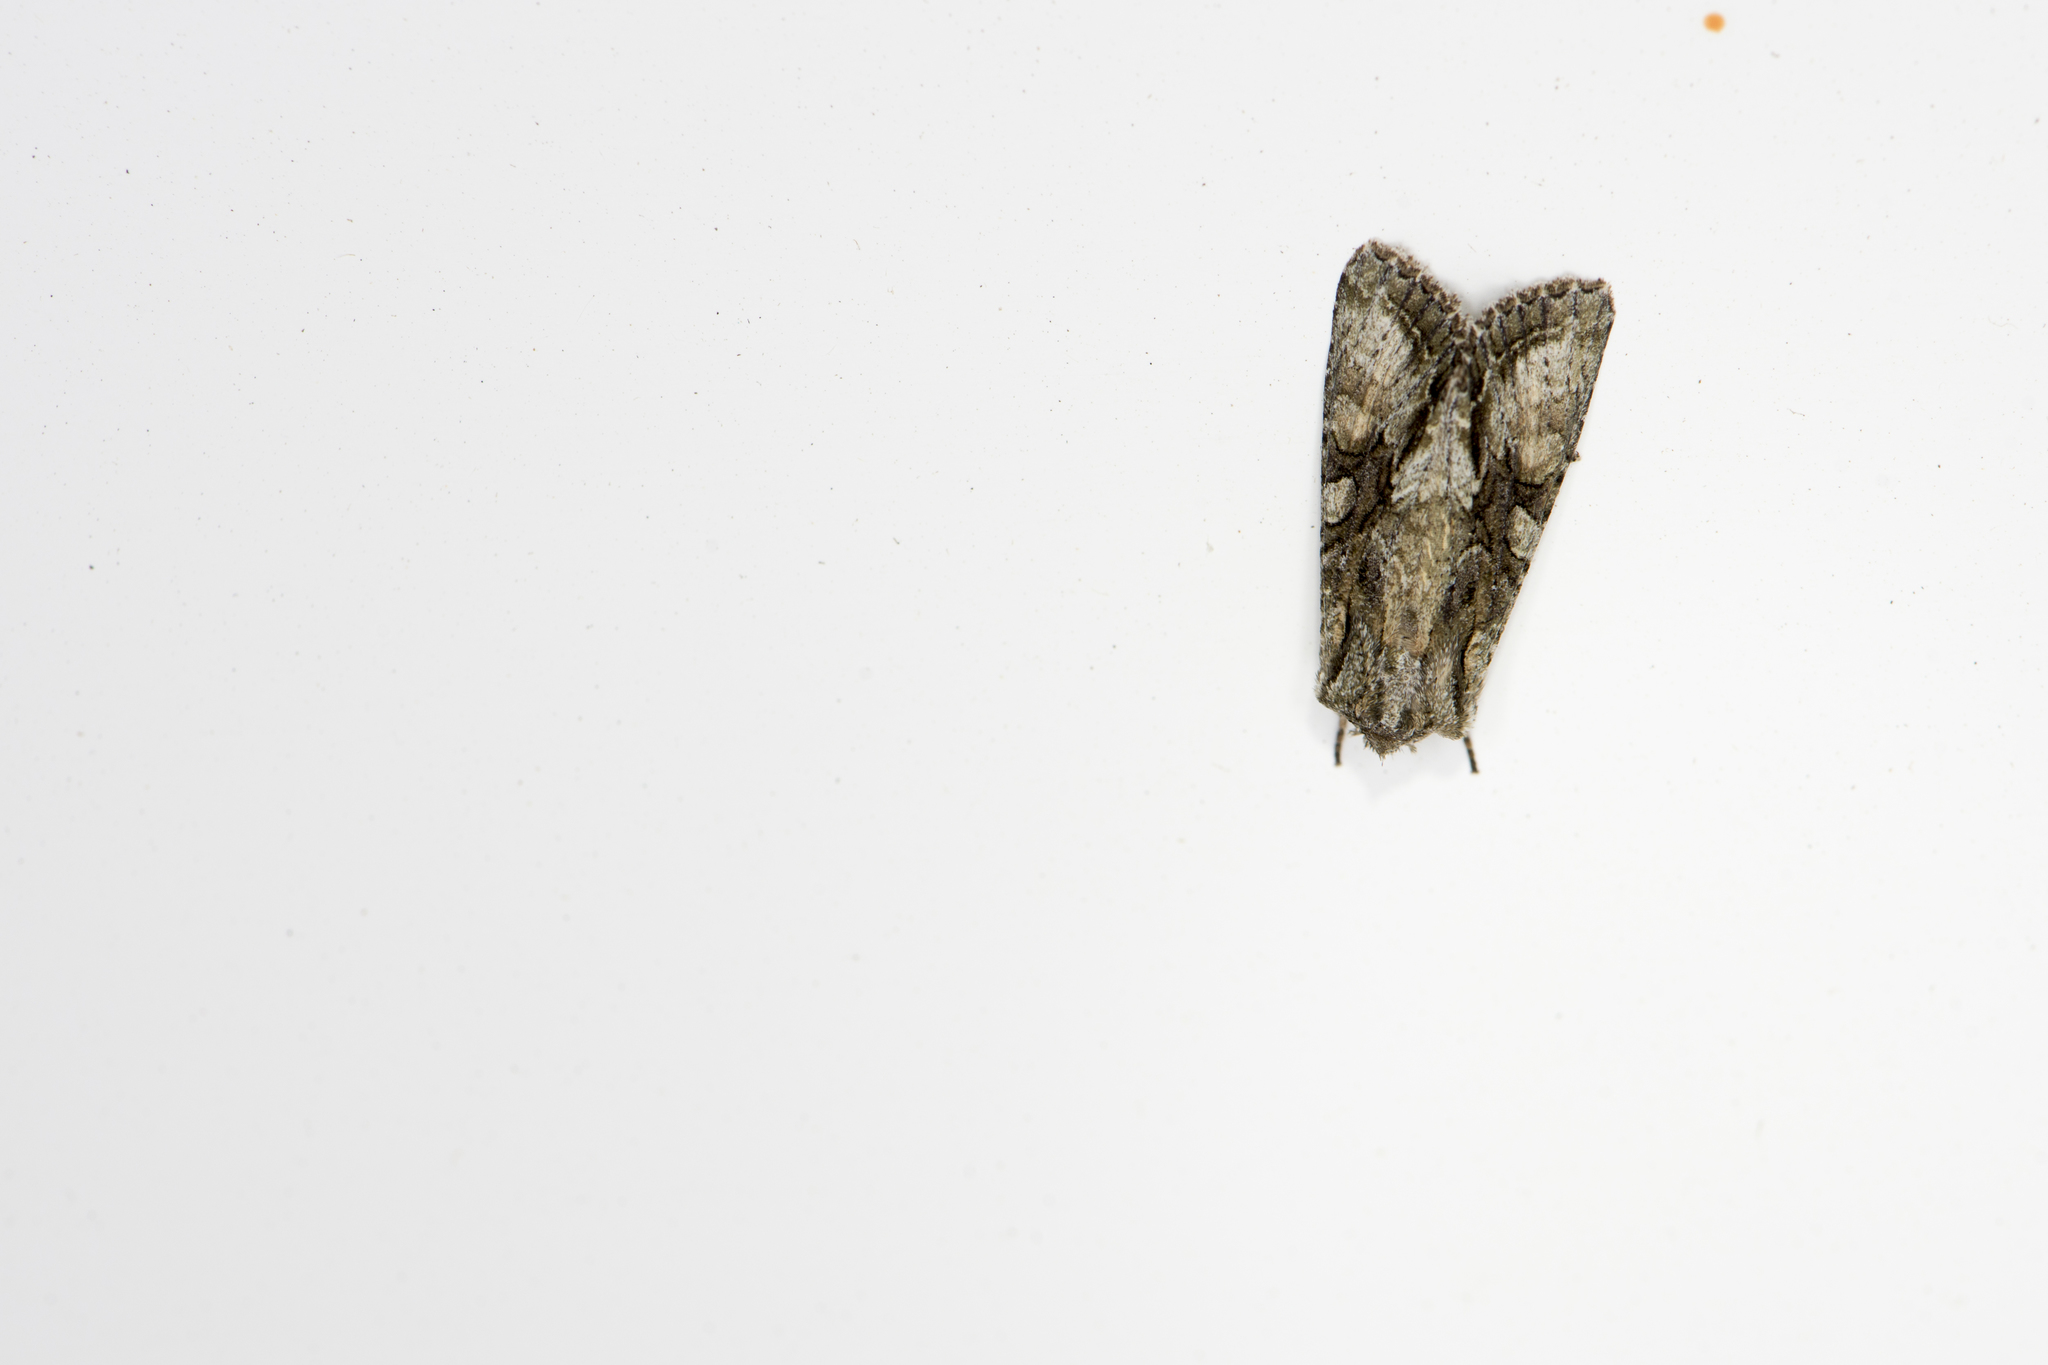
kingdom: Animalia
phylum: Arthropoda
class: Insecta
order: Lepidoptera
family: Noctuidae
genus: Ichneutica
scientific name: Ichneutica mutans
